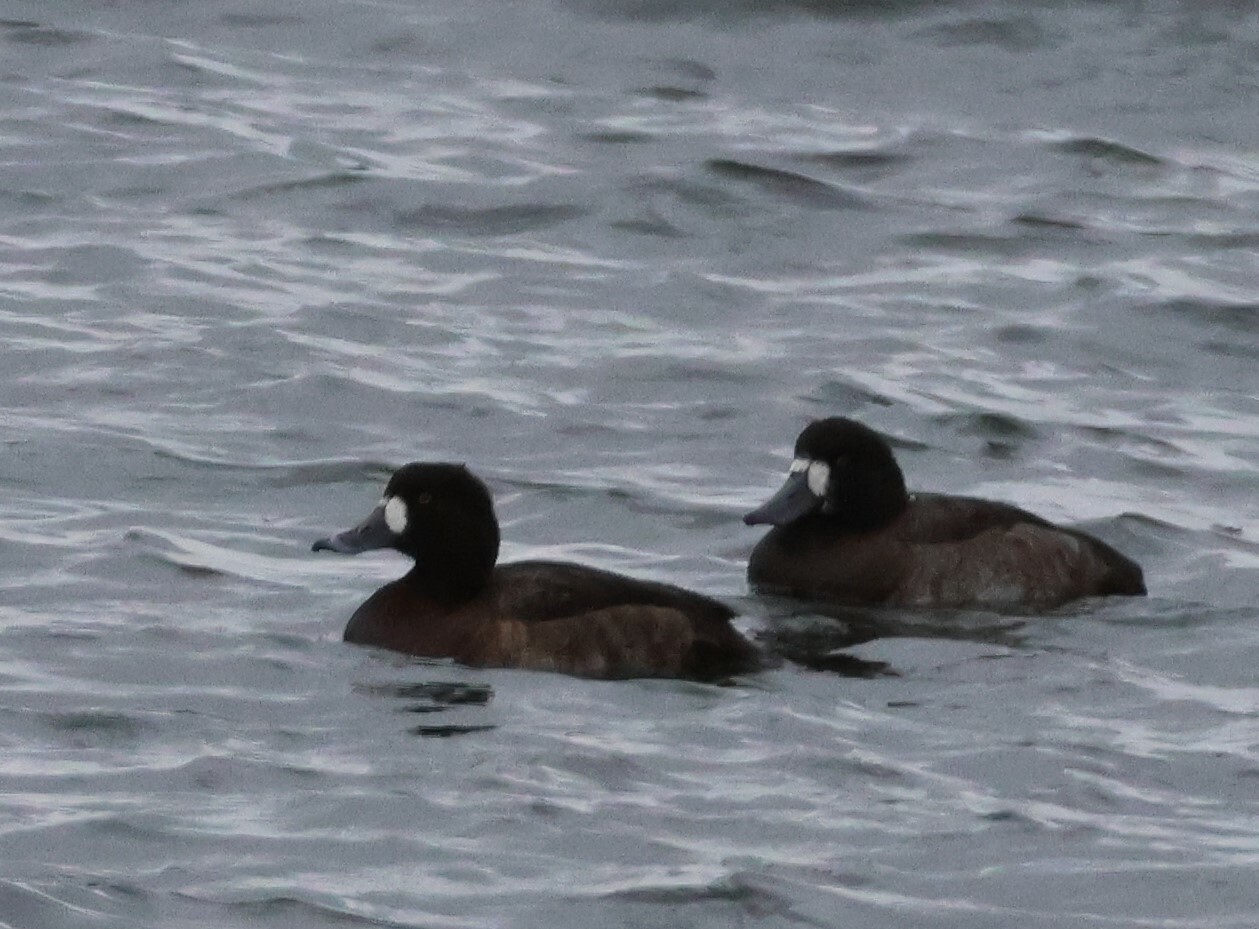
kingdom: Animalia
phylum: Chordata
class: Aves
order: Anseriformes
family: Anatidae
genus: Aythya
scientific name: Aythya marila
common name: Greater scaup
